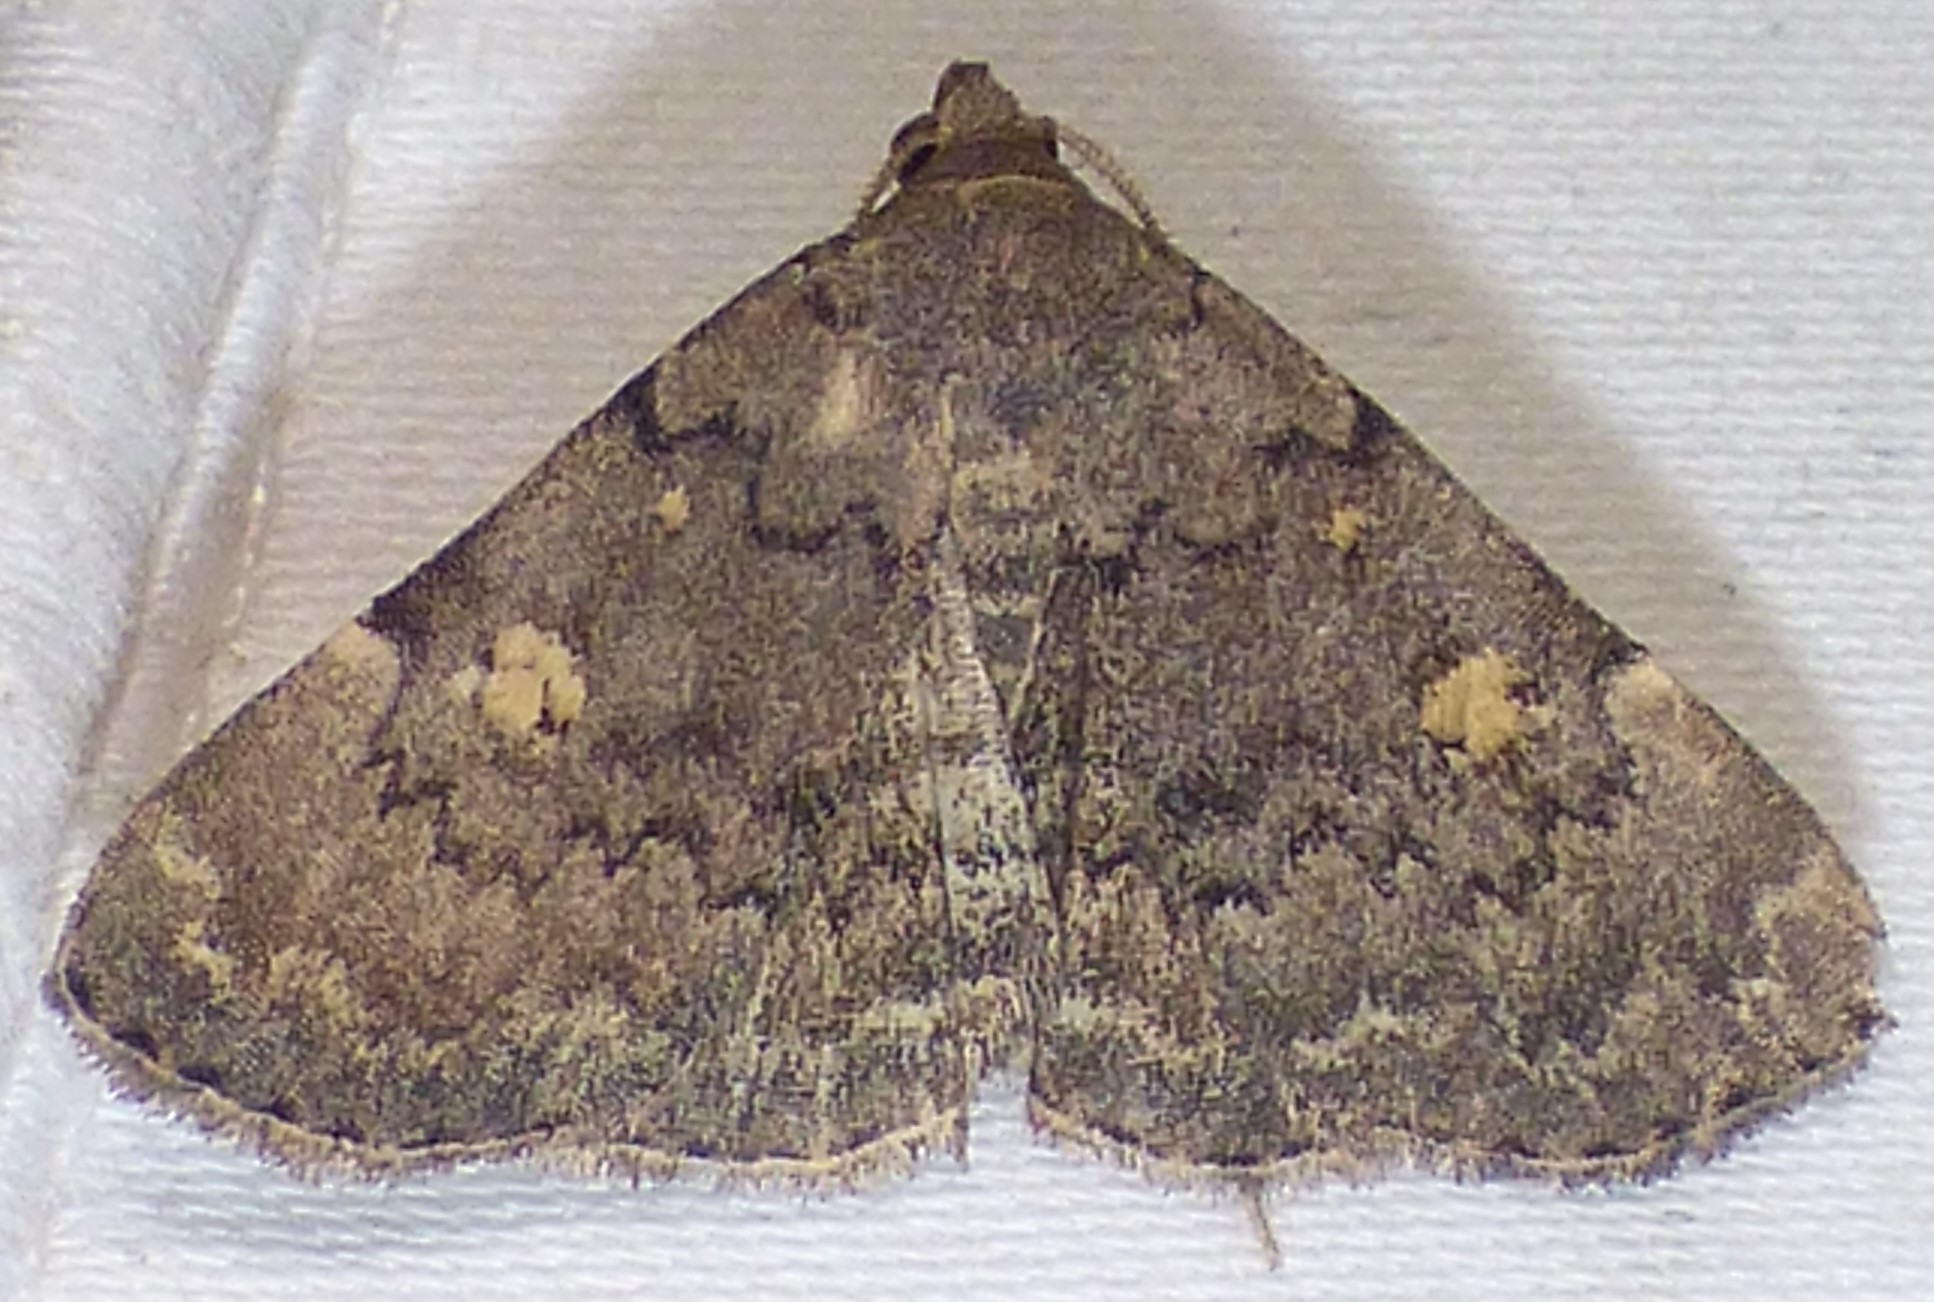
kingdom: Animalia
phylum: Arthropoda
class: Insecta
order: Lepidoptera
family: Erebidae
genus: Idia
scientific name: Idia aemula
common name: Common idia moth
